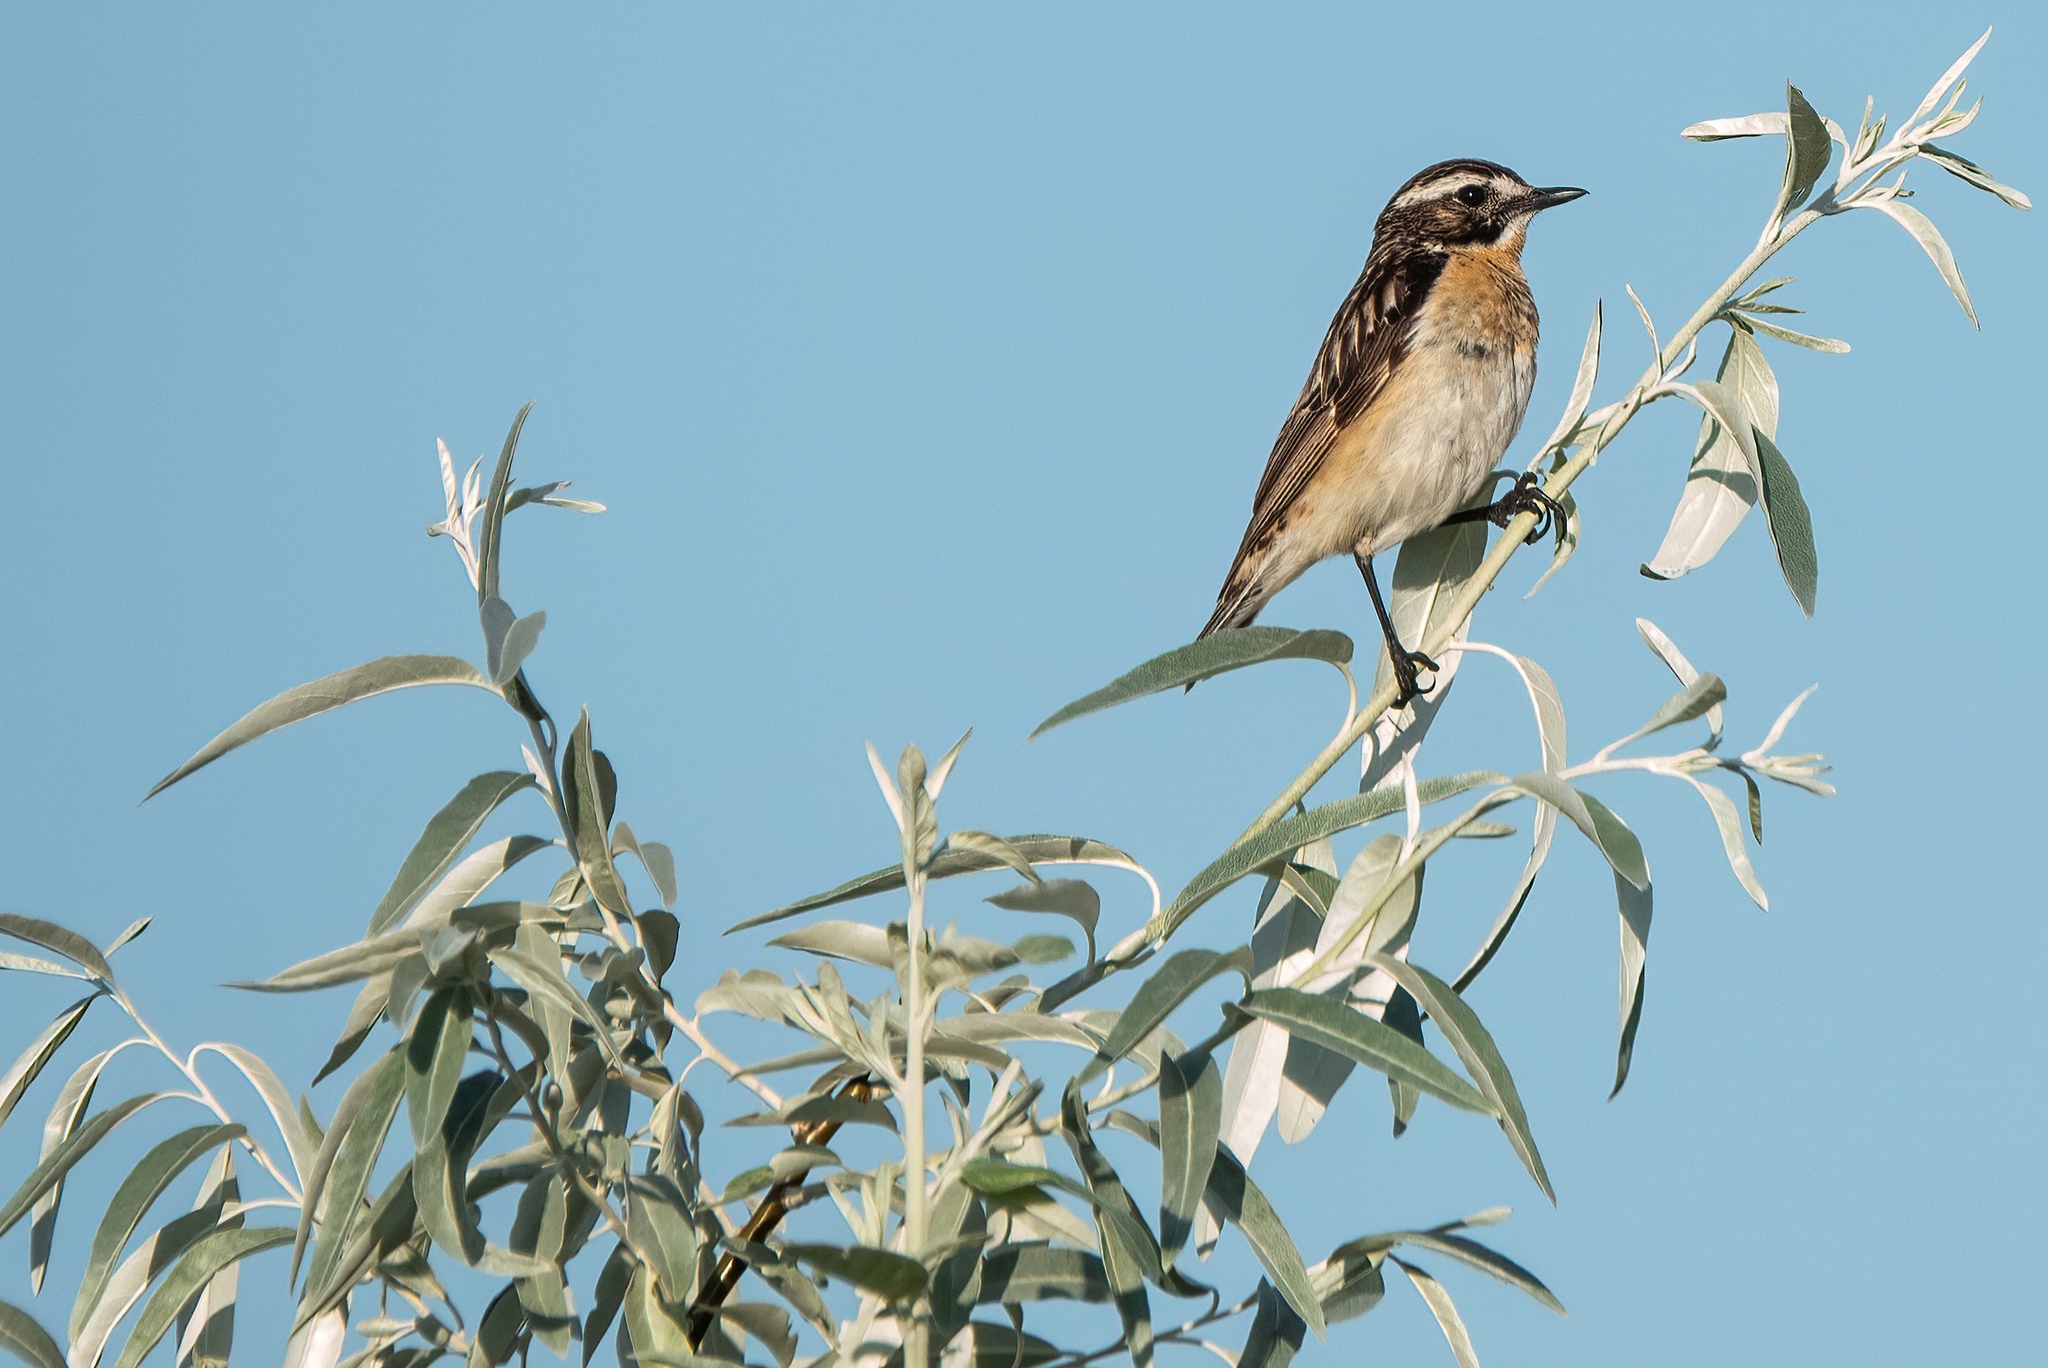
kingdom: Animalia
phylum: Chordata
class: Aves
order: Passeriformes
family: Muscicapidae
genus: Saxicola
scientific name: Saxicola rubetra
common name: Whinchat
